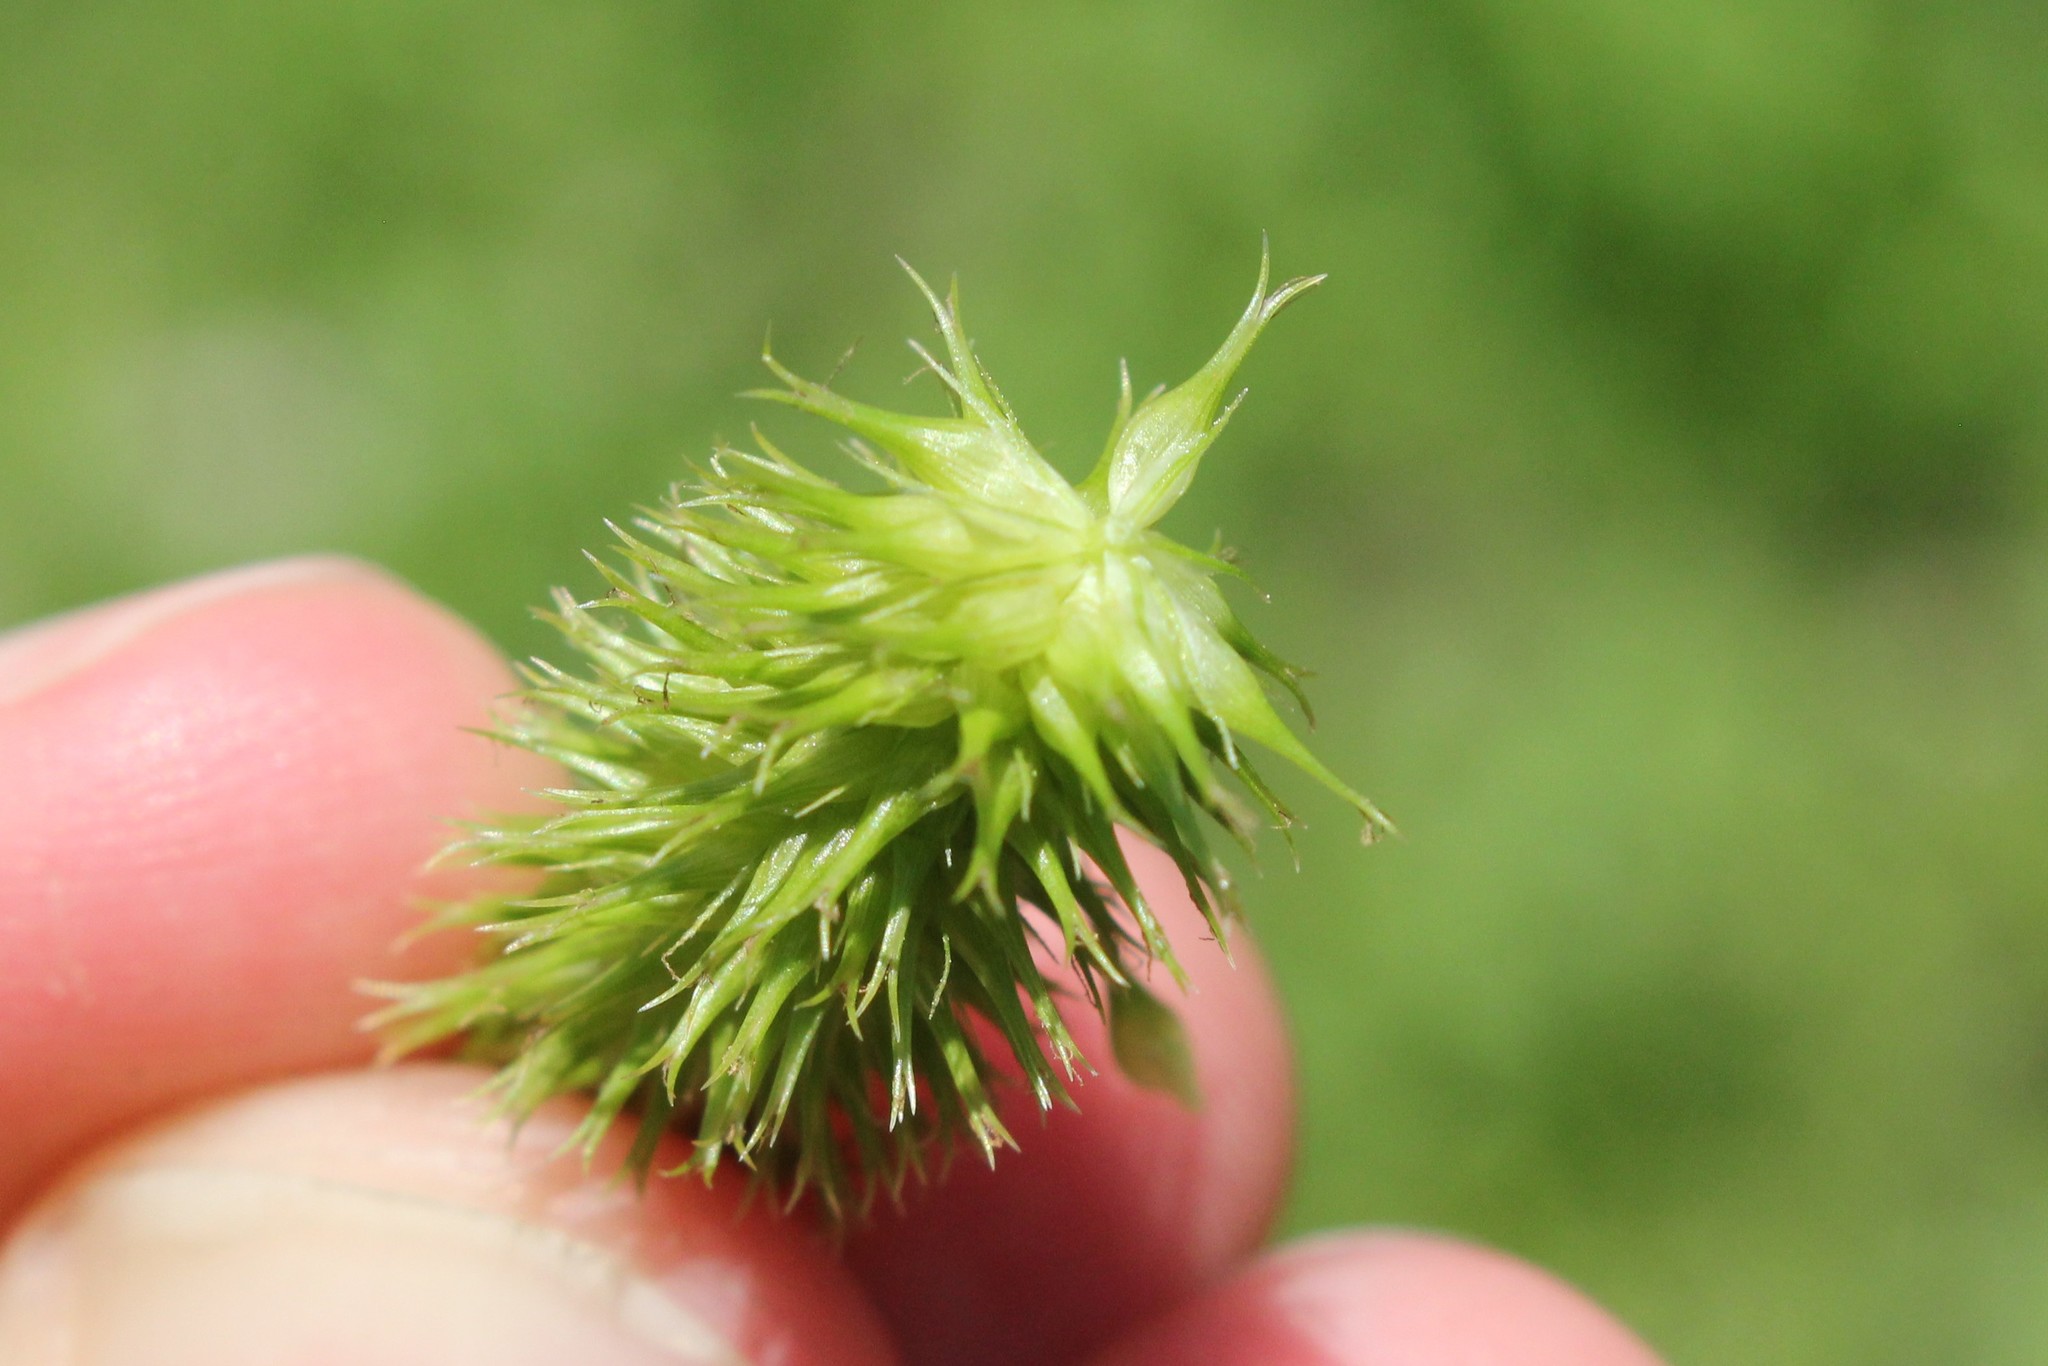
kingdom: Plantae
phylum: Tracheophyta
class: Liliopsida
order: Poales
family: Cyperaceae
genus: Carex
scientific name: Carex comosa
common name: Bristly sedge
